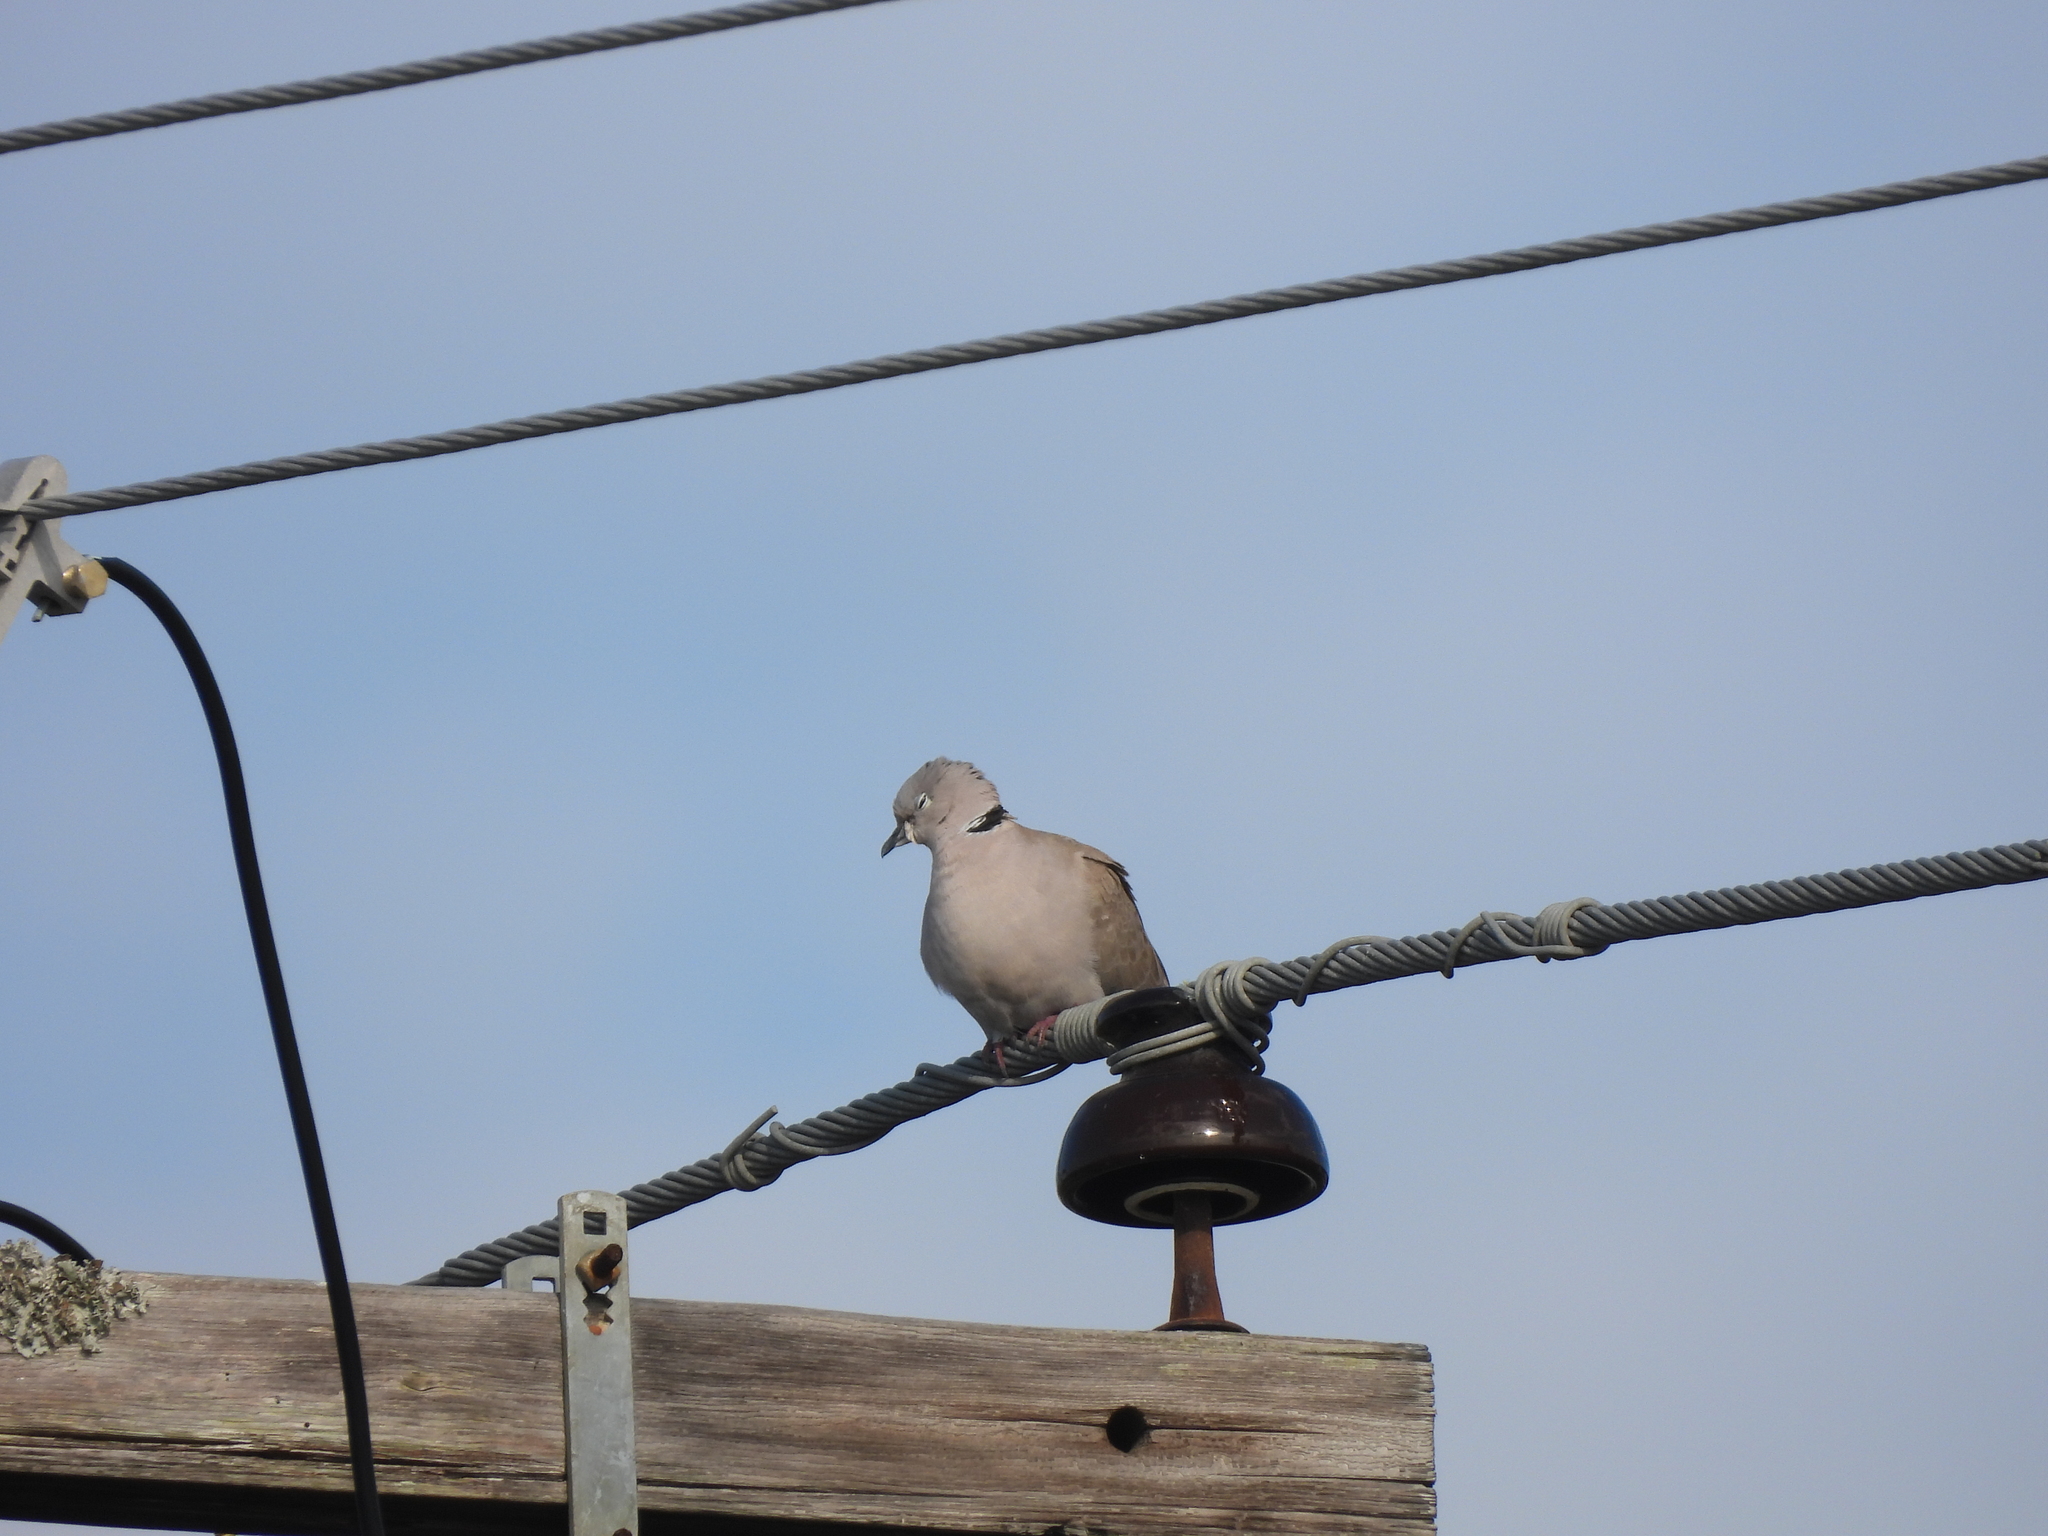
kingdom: Animalia
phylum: Chordata
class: Aves
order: Columbiformes
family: Columbidae
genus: Streptopelia
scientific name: Streptopelia decaocto
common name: Eurasian collared dove
